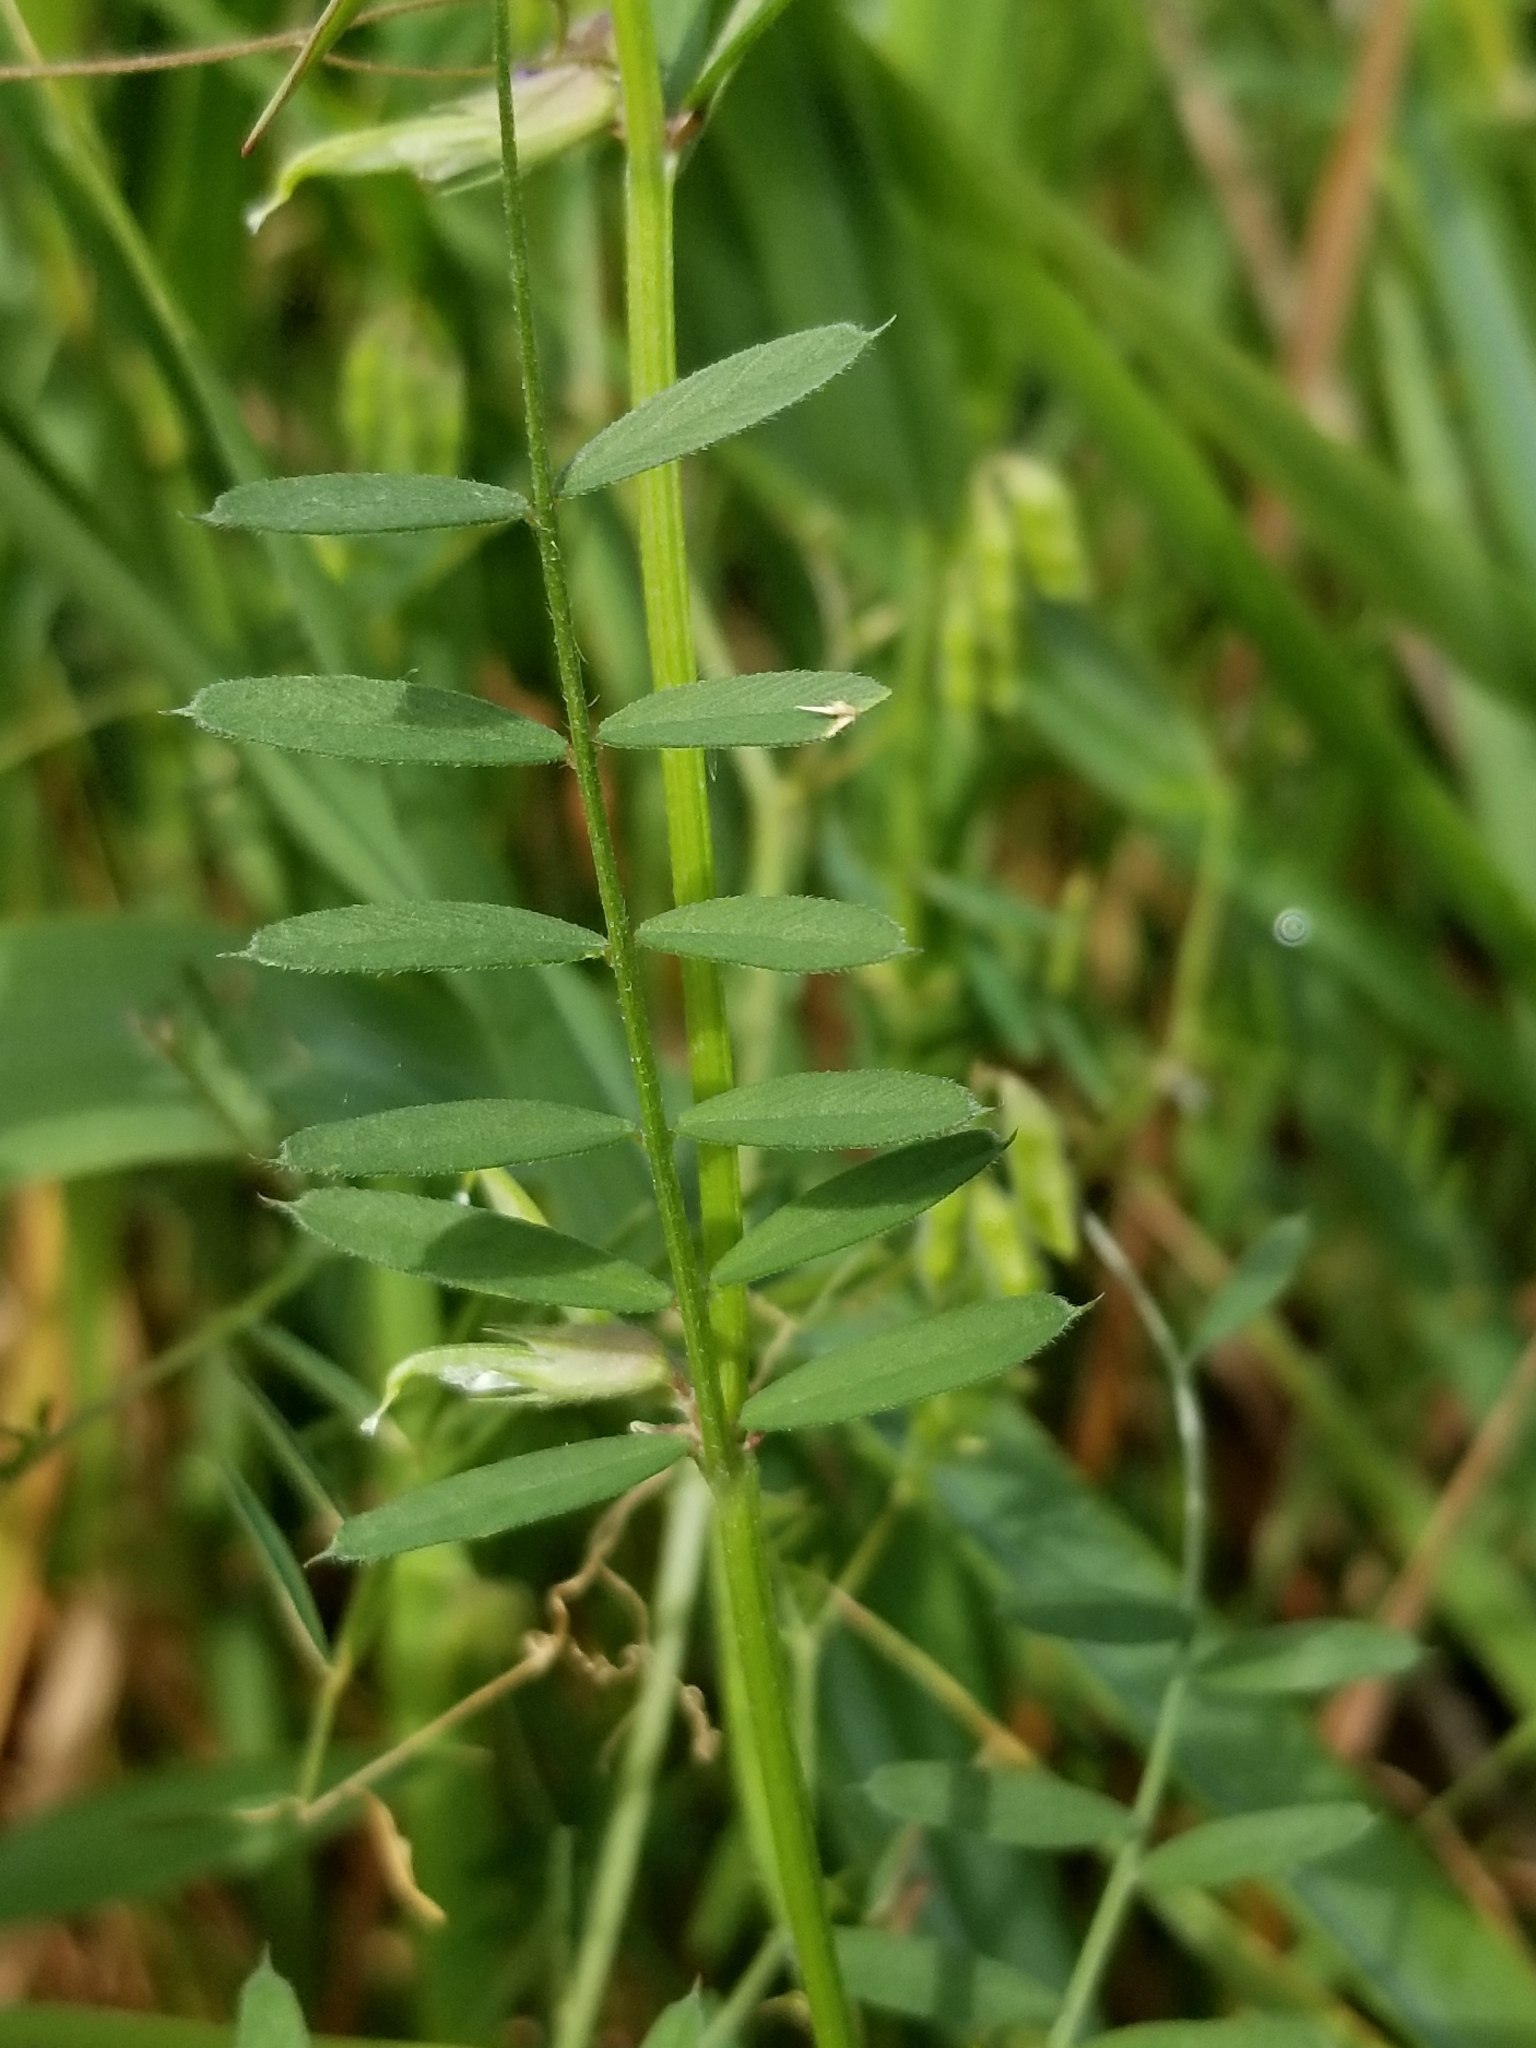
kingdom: Plantae
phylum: Tracheophyta
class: Magnoliopsida
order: Fabales
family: Fabaceae
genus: Vicia
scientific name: Vicia sativa
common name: Garden vetch
